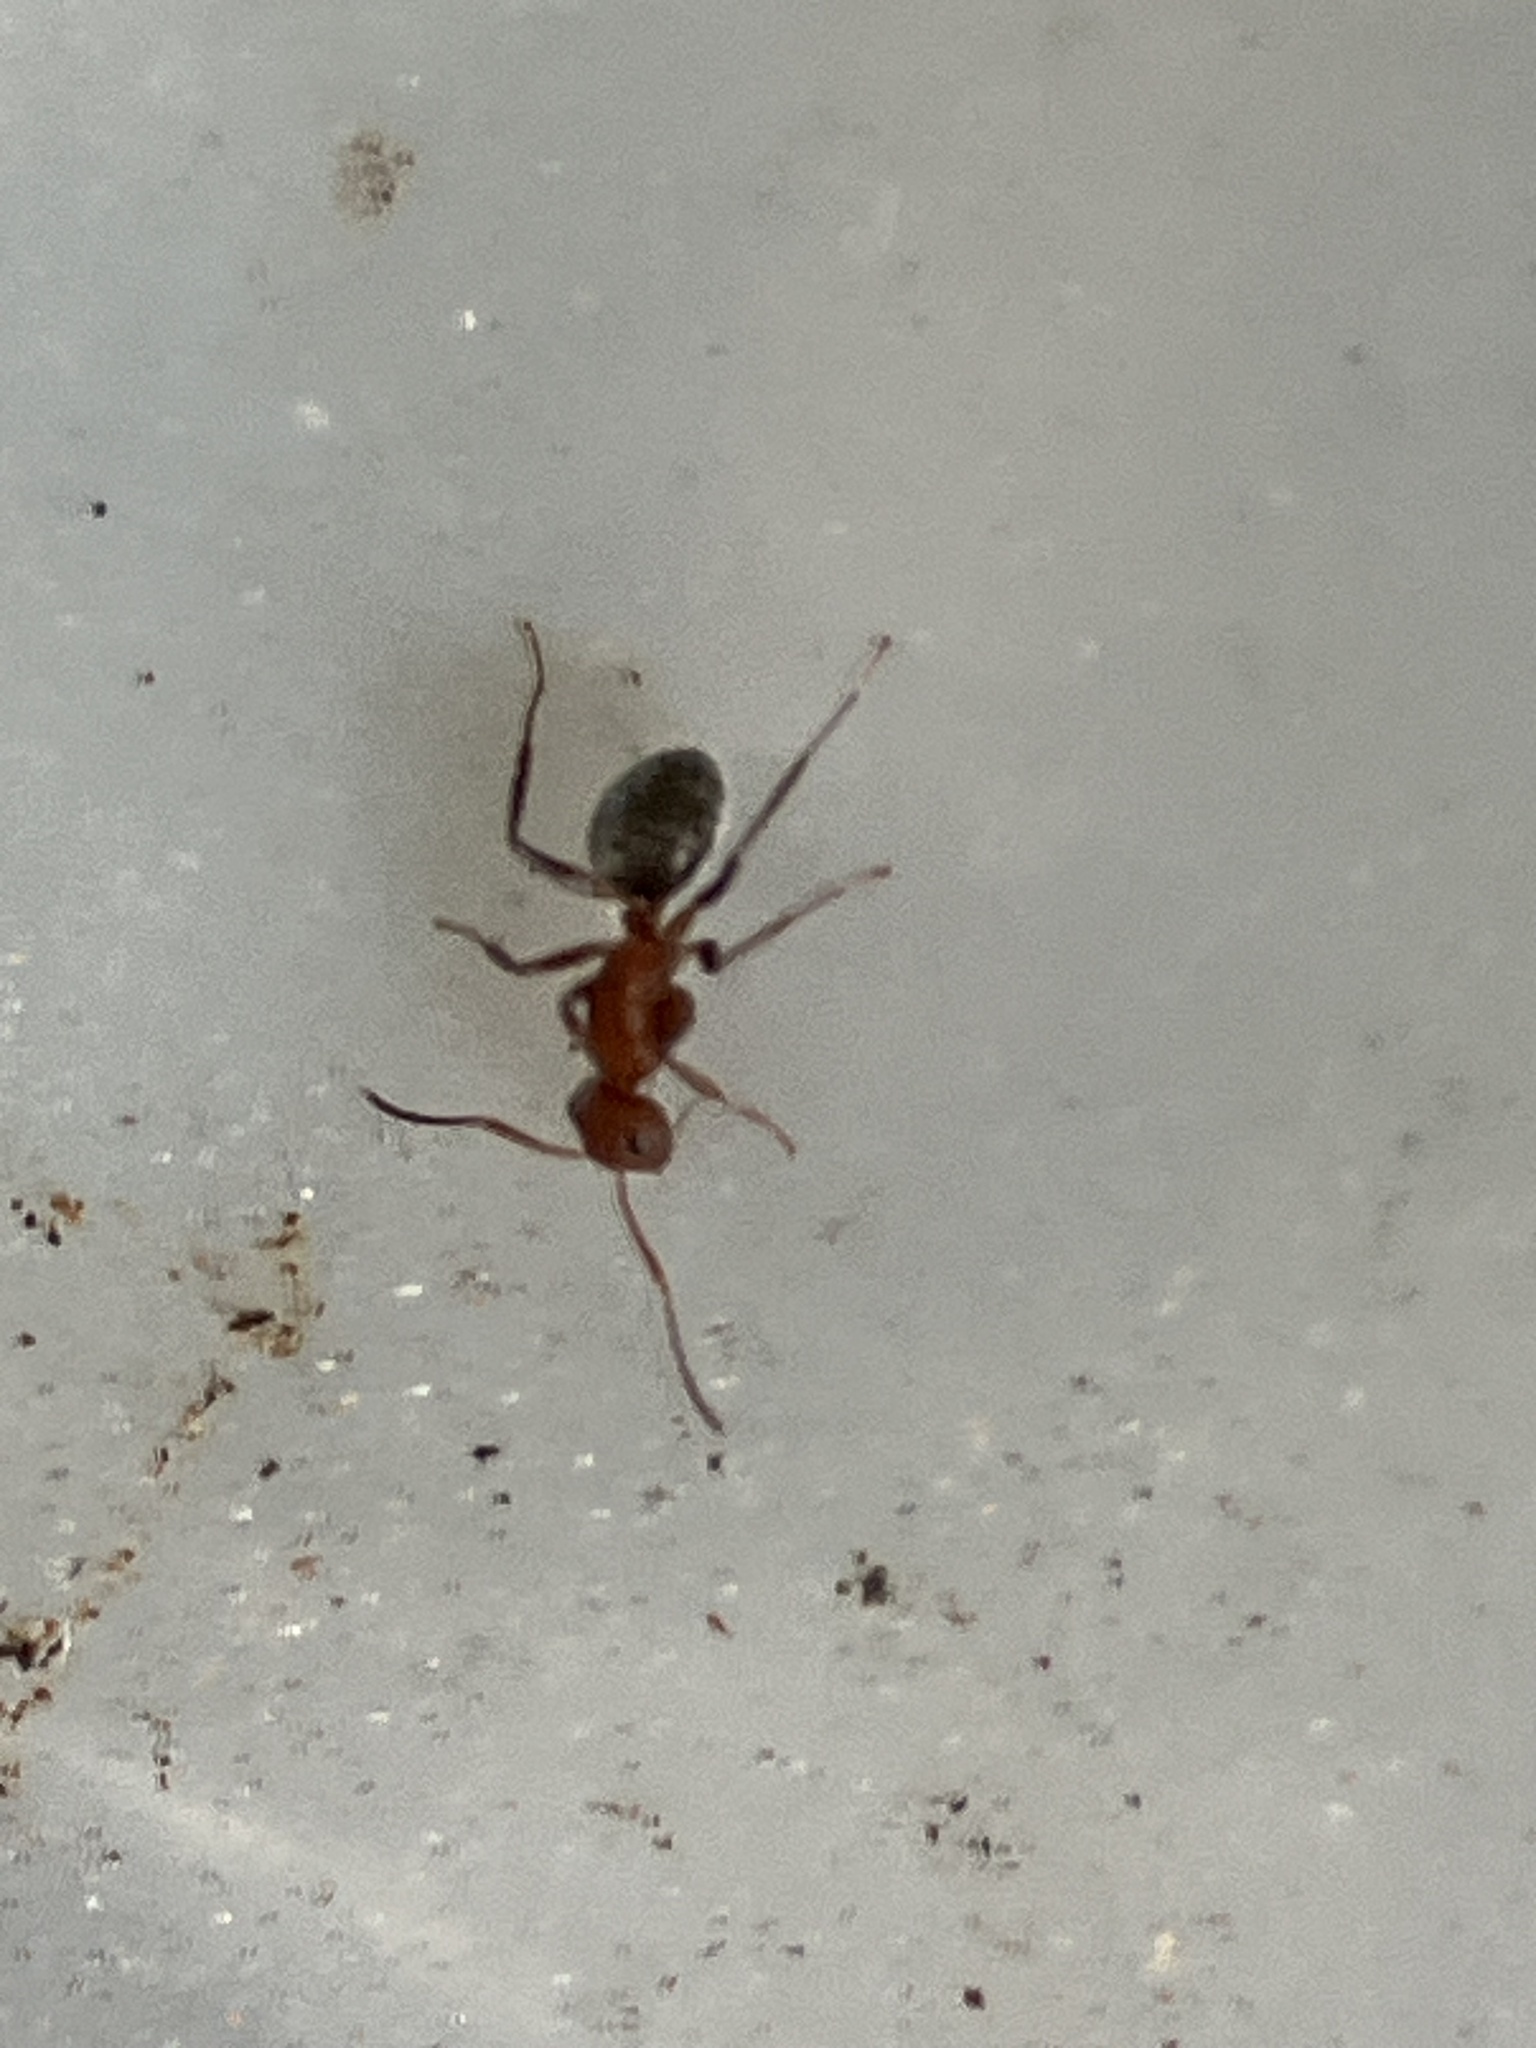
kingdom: Animalia
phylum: Arthropoda
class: Insecta
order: Hymenoptera
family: Formicidae
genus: Camponotus
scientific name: Camponotus planatus
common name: Compact carpenter ant
